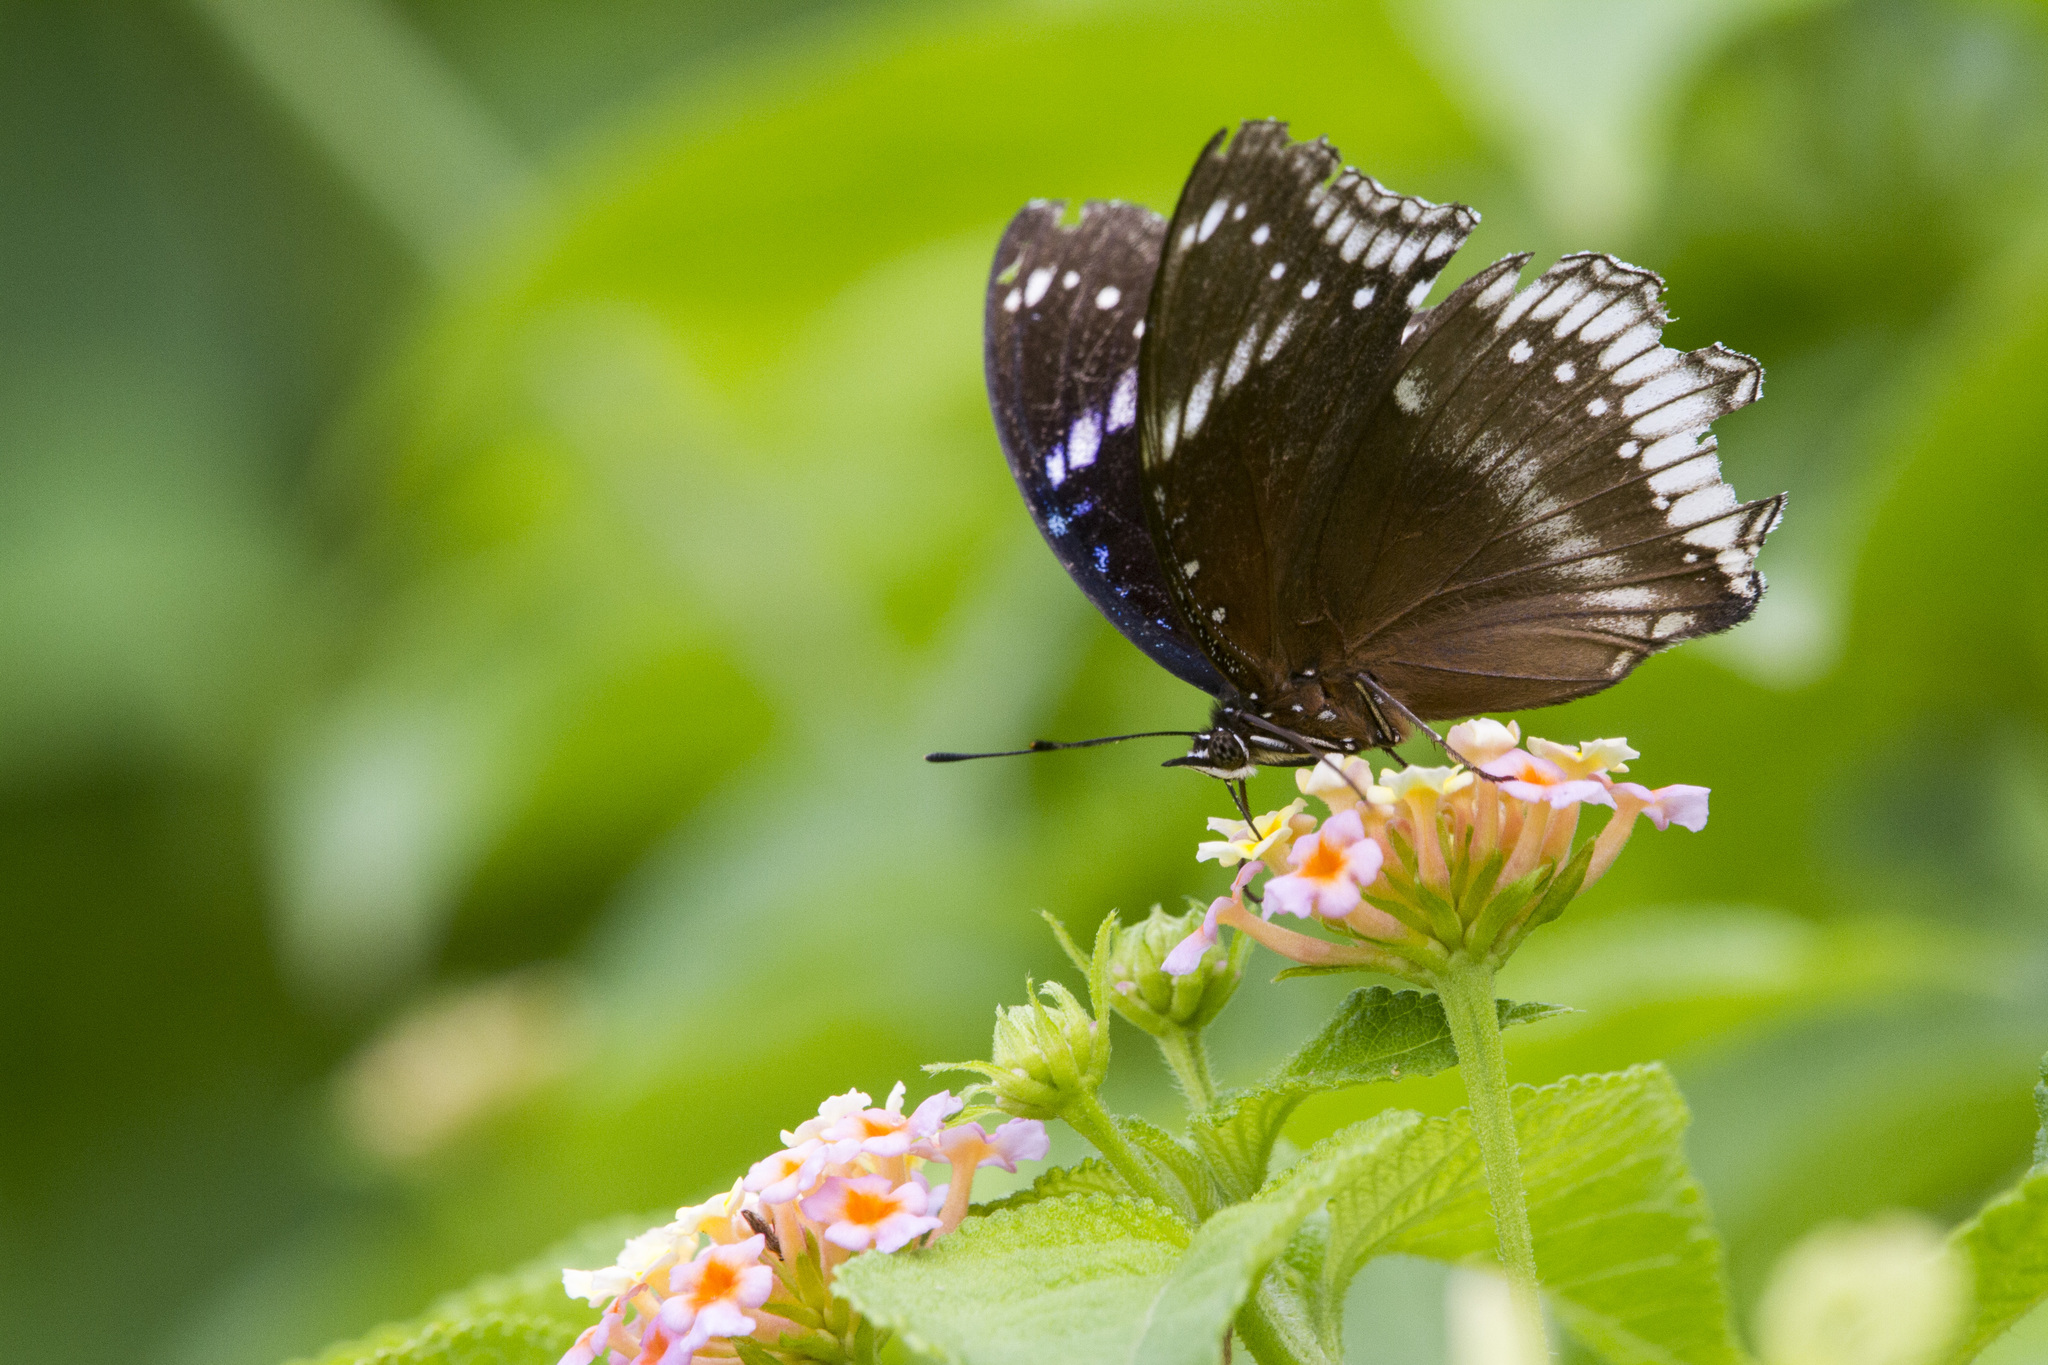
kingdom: Animalia
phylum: Arthropoda
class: Insecta
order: Lepidoptera
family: Nymphalidae
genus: Hypolimnas
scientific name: Hypolimnas bolina
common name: Great eggfly
